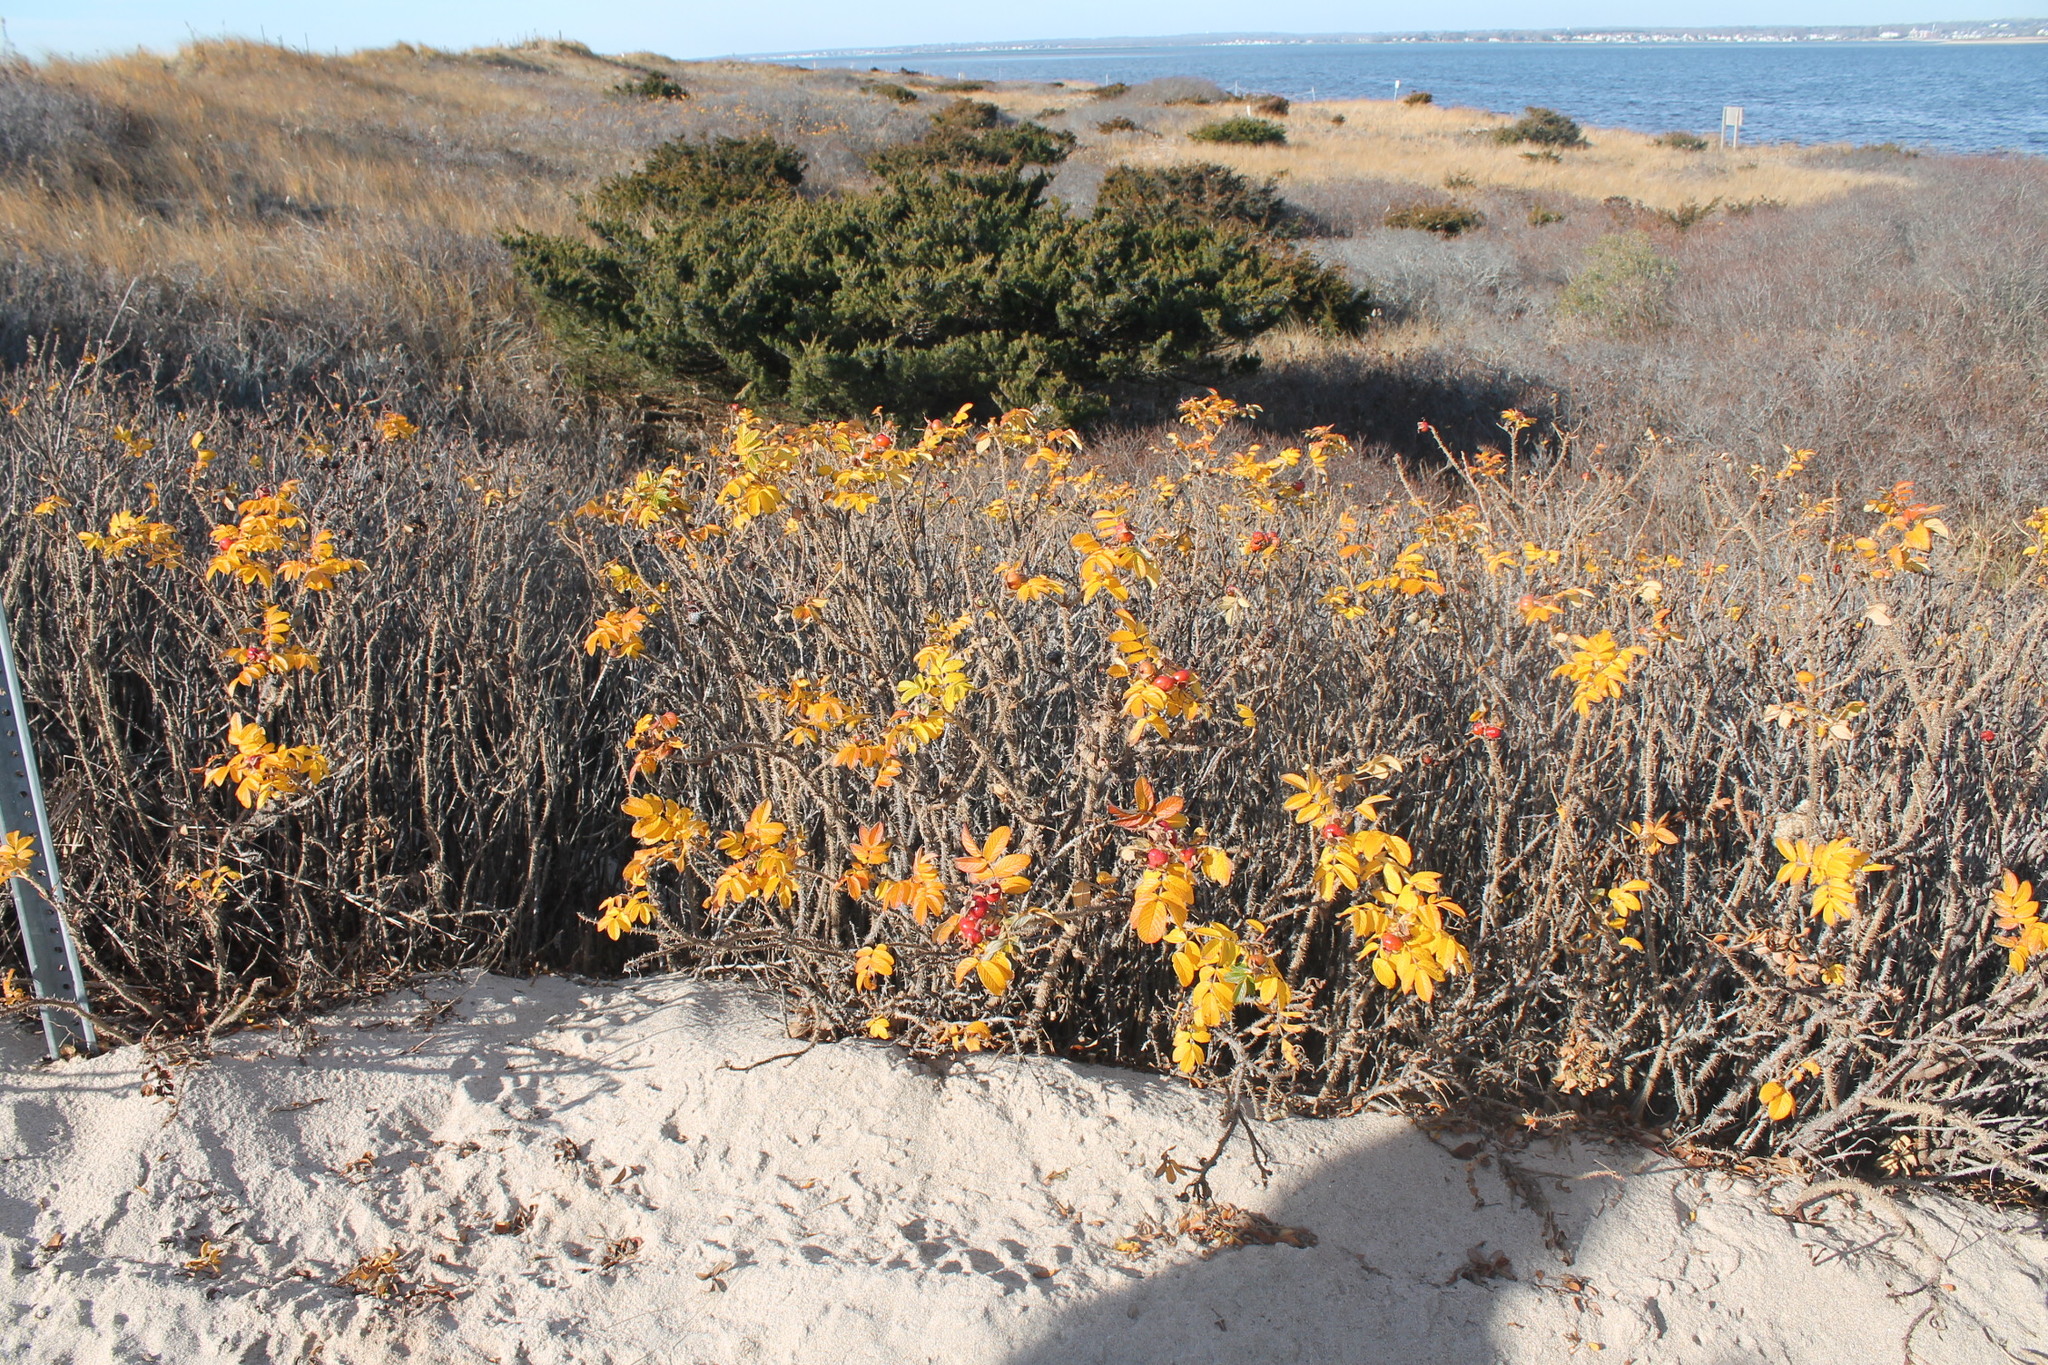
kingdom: Plantae
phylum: Tracheophyta
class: Magnoliopsida
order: Rosales
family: Rosaceae
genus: Rosa
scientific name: Rosa rugosa
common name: Japanese rose
